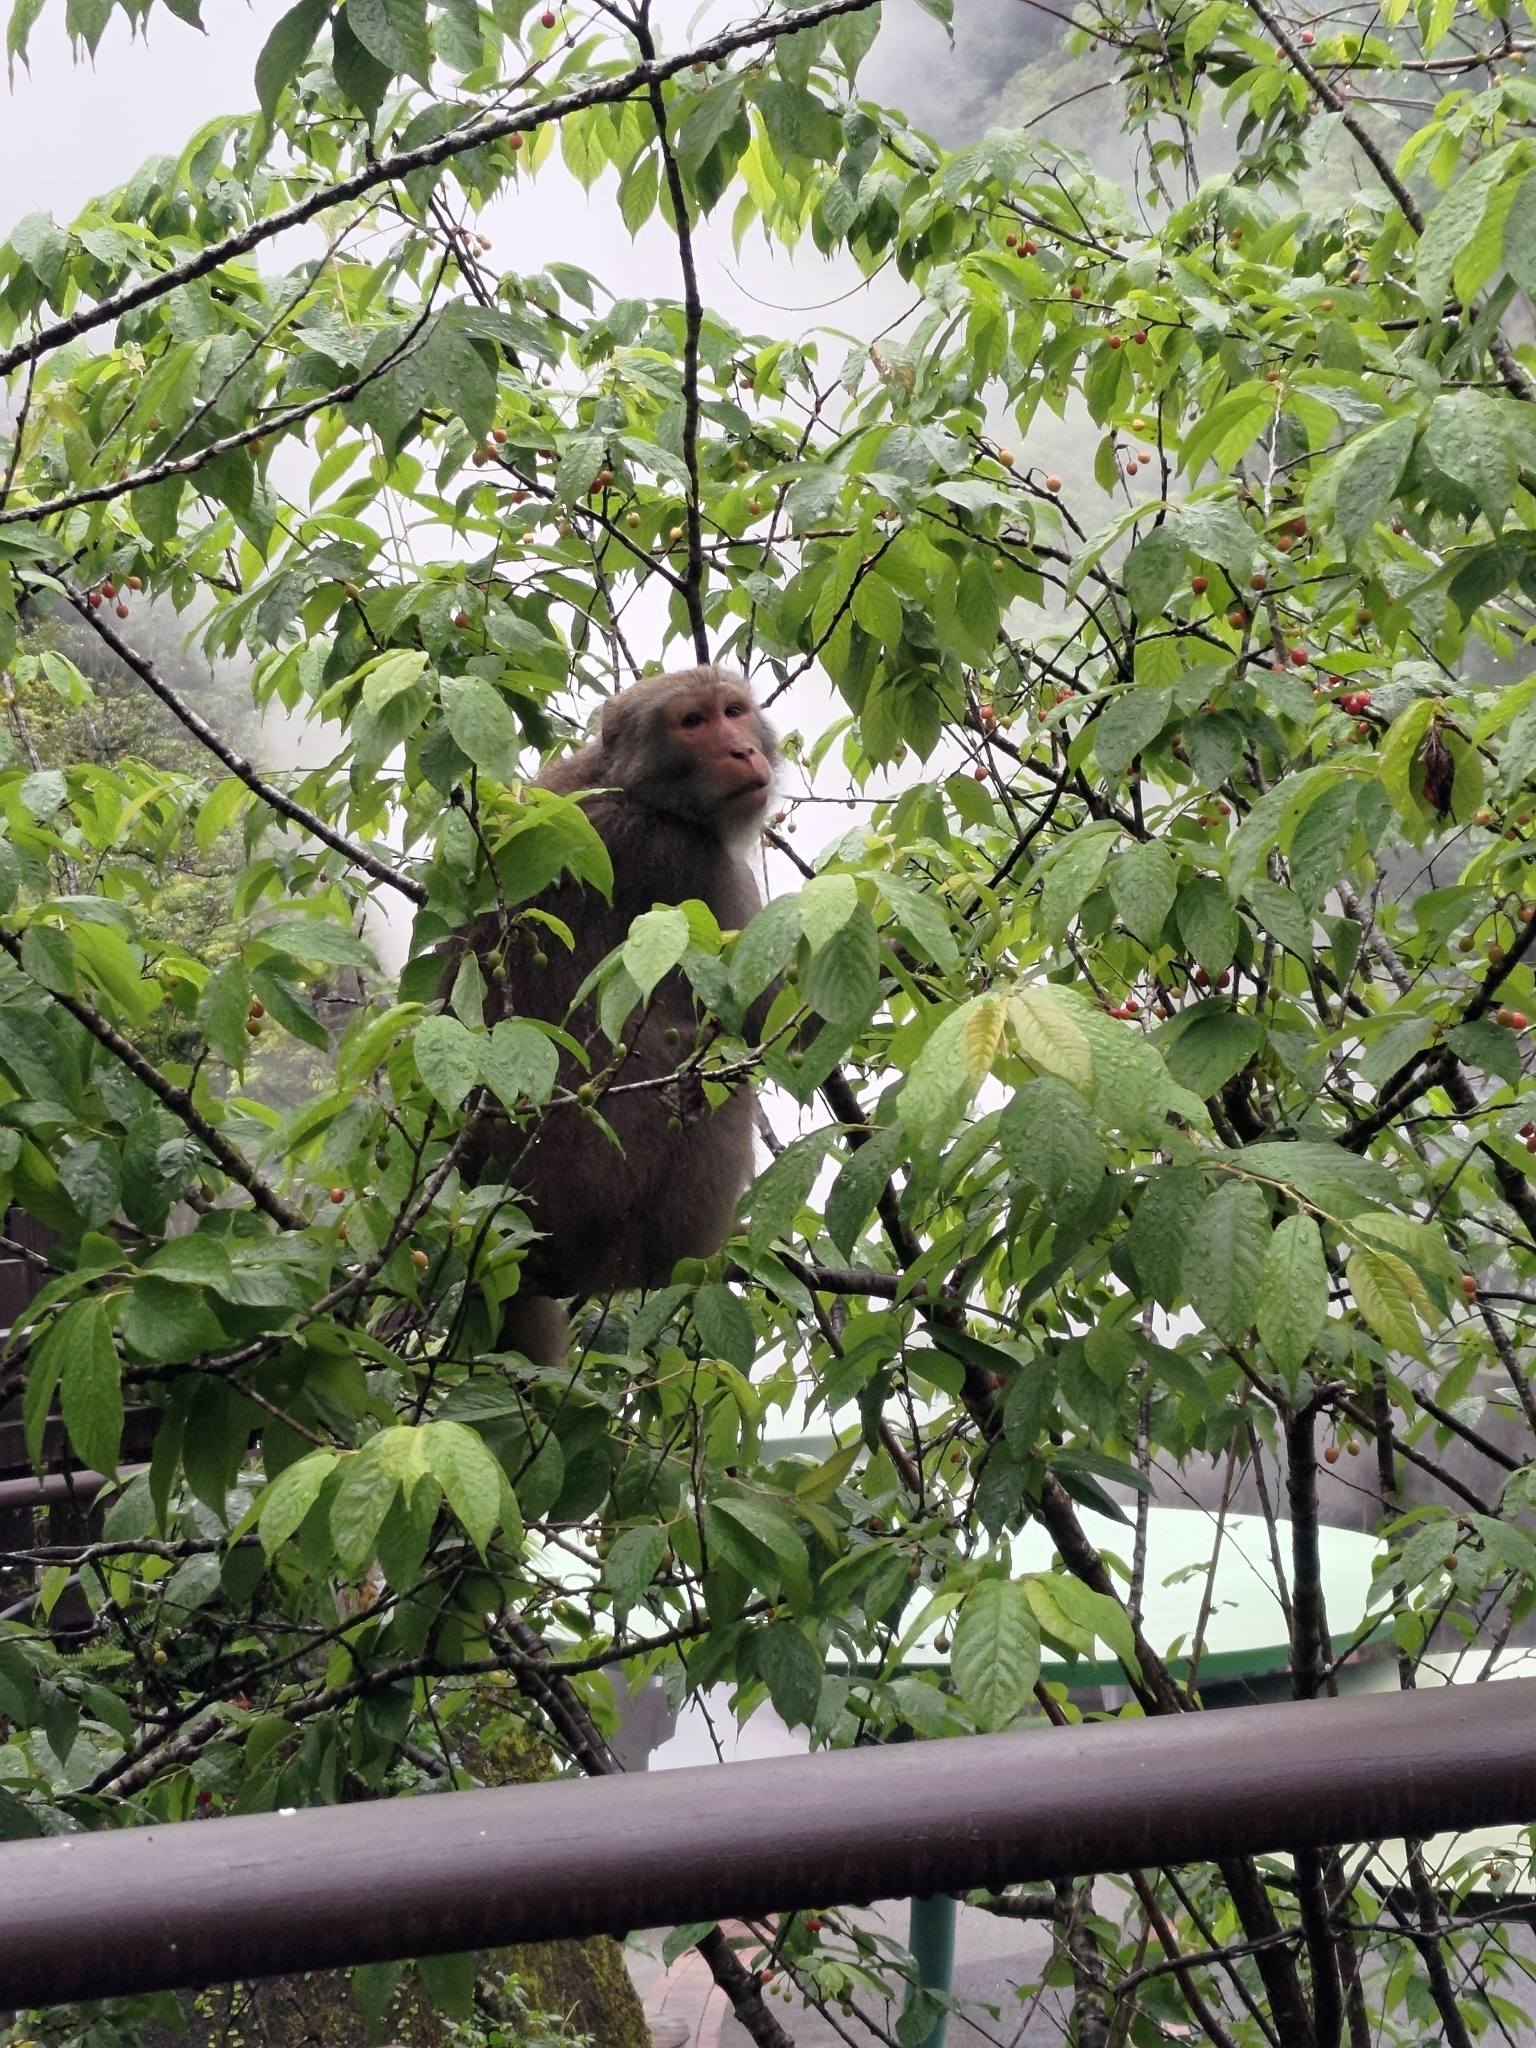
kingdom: Animalia
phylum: Chordata
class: Mammalia
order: Primates
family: Cercopithecidae
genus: Macaca
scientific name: Macaca cyclopis
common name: Formosan rock macaque
